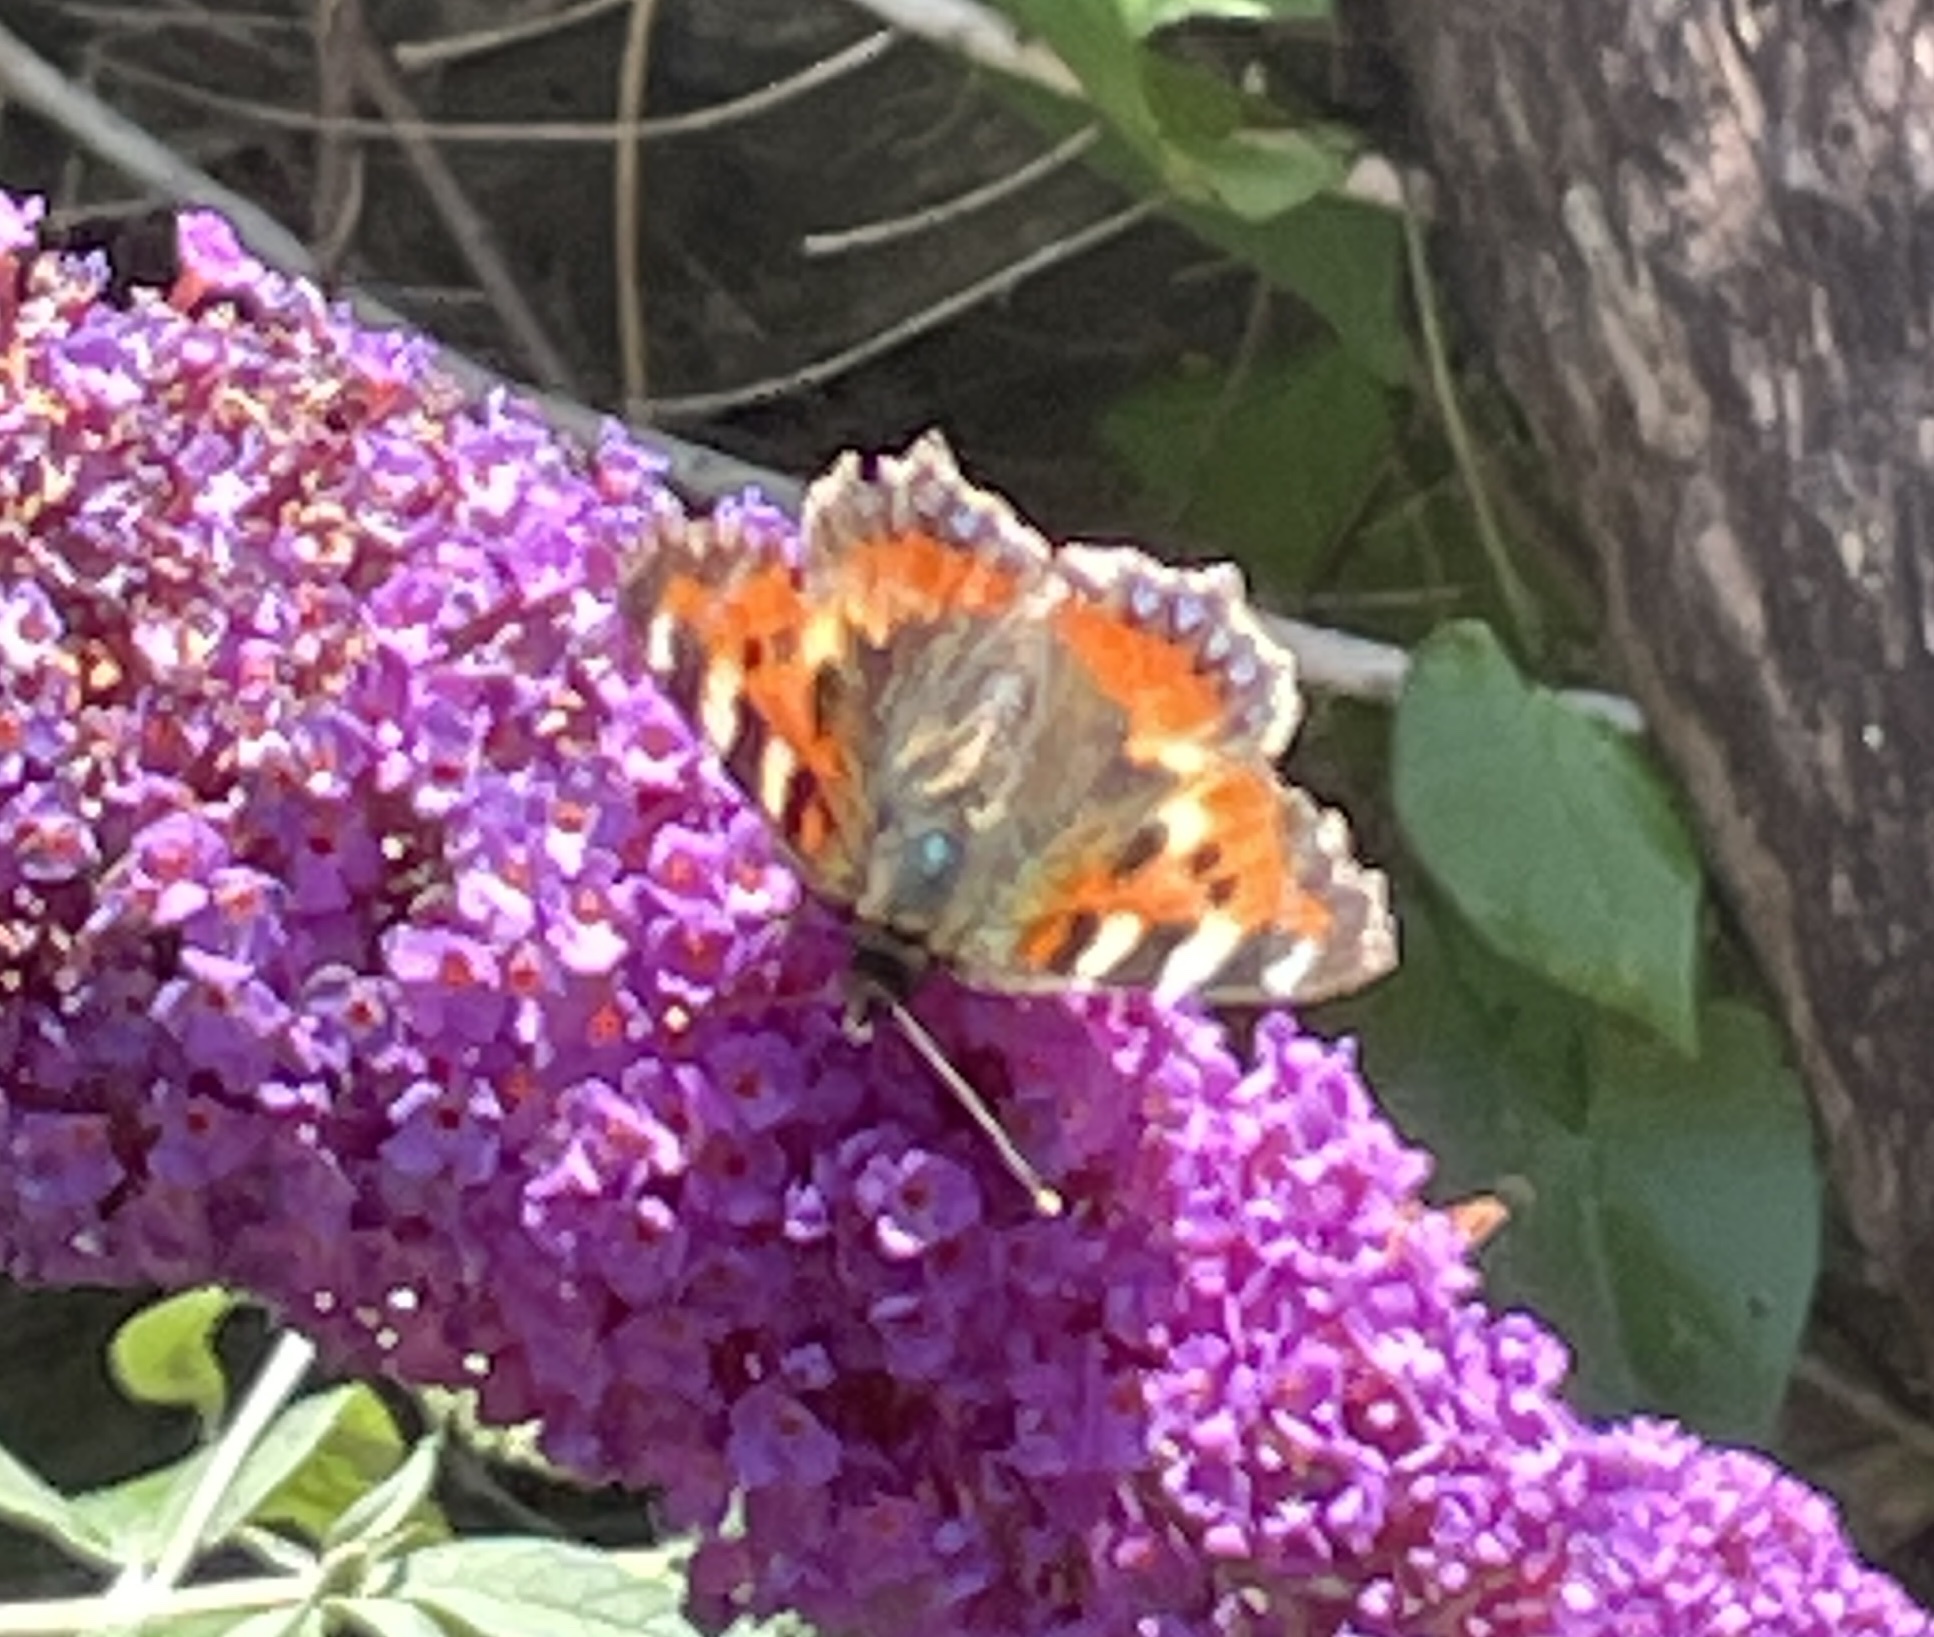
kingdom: Animalia
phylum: Arthropoda
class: Insecta
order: Lepidoptera
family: Nymphalidae
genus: Aglais
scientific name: Aglais urticae
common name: Small tortoiseshell
